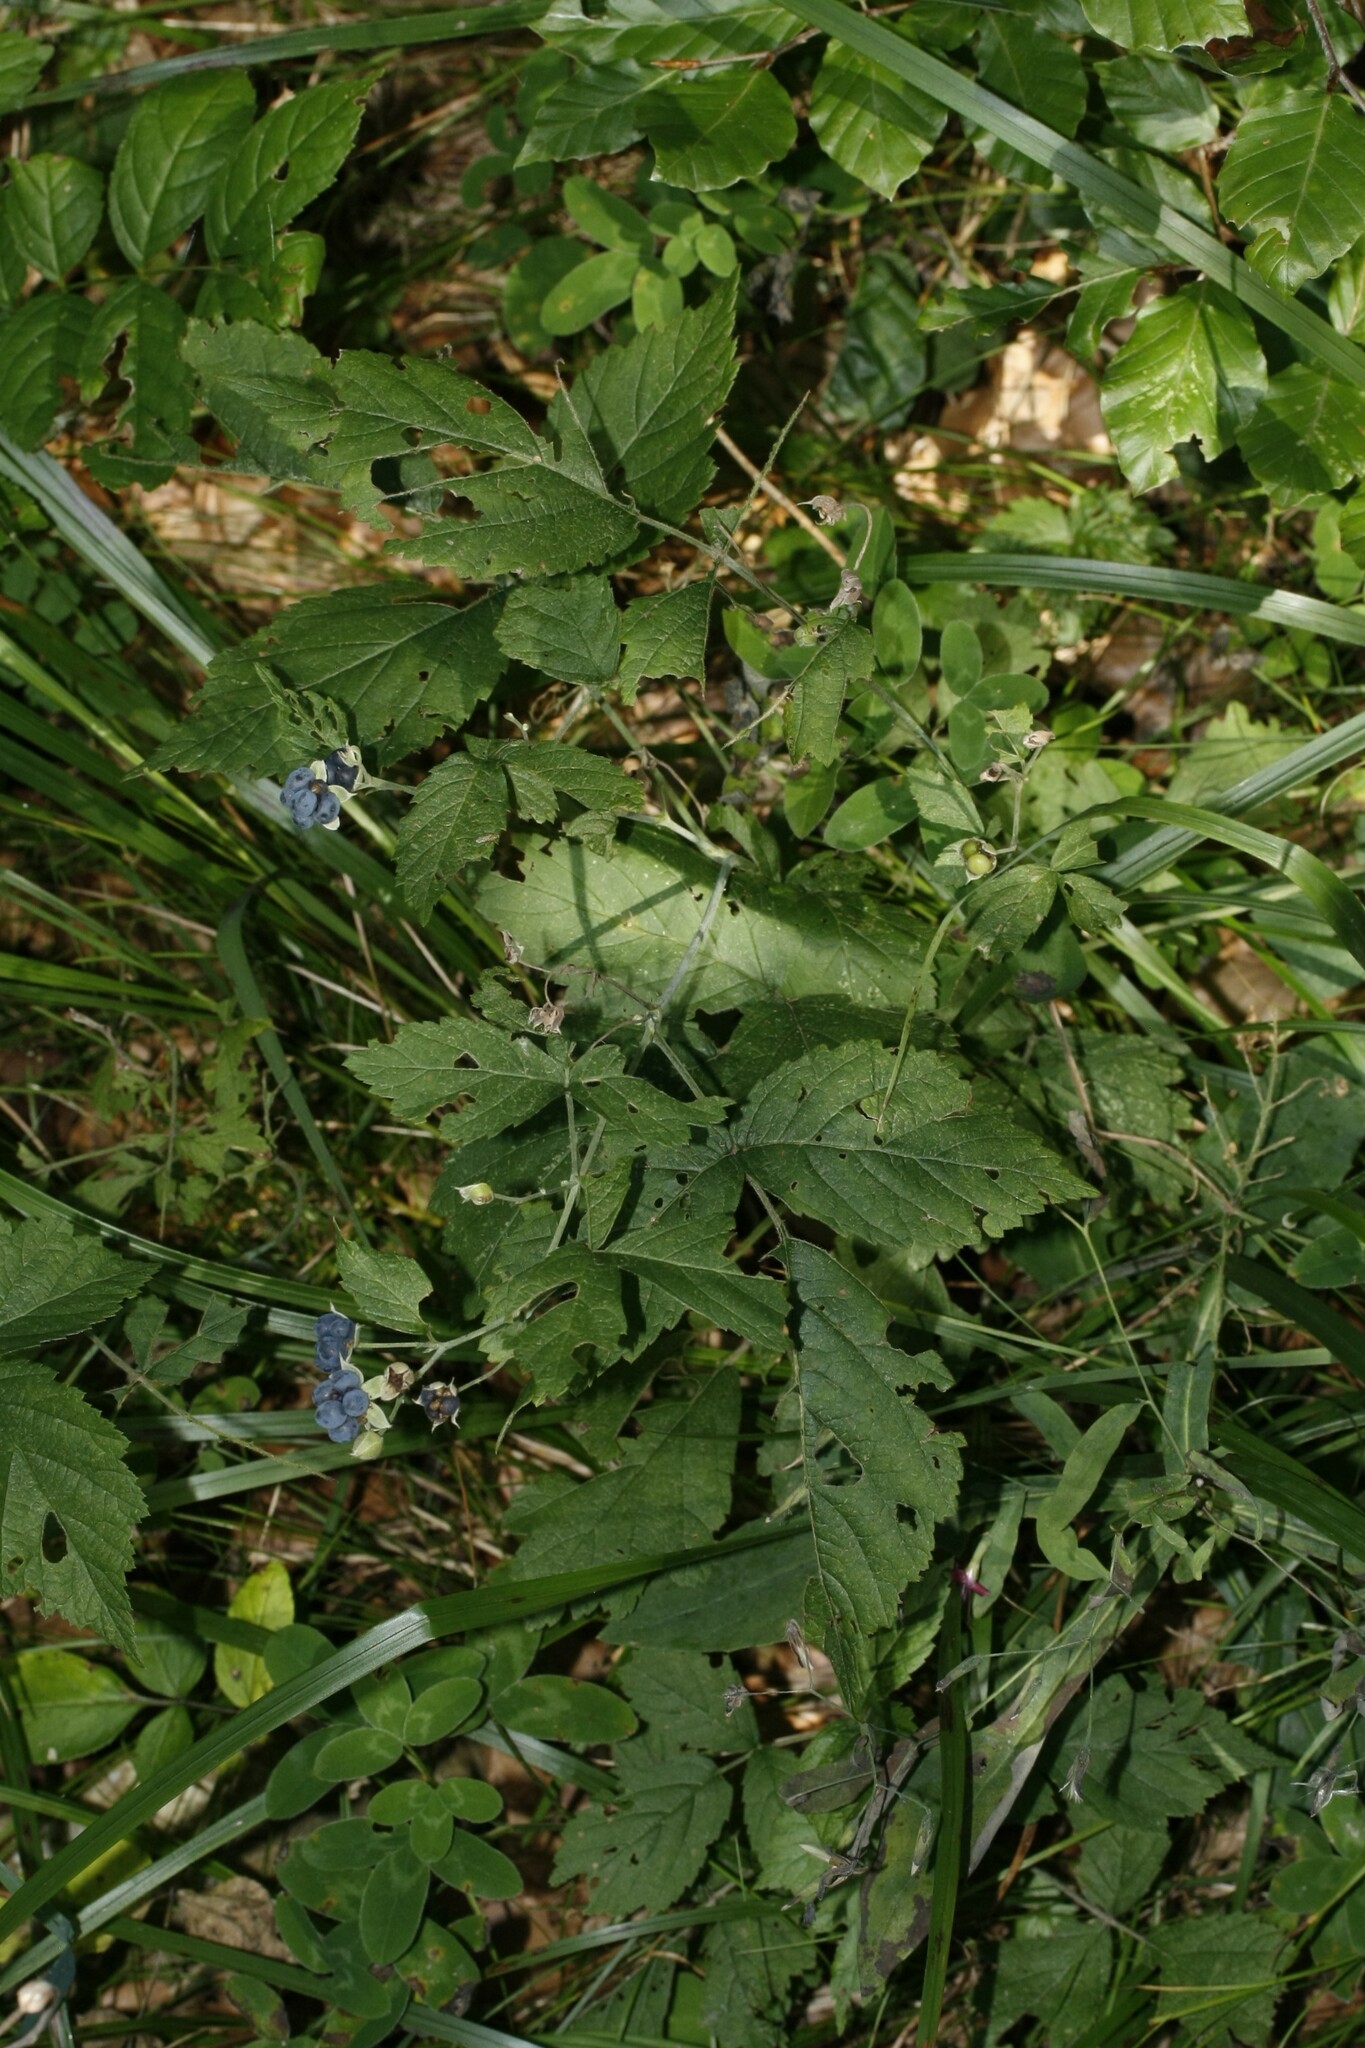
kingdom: Plantae
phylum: Tracheophyta
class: Magnoliopsida
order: Rosales
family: Rosaceae
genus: Rubus
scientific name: Rubus caesius
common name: Dewberry
